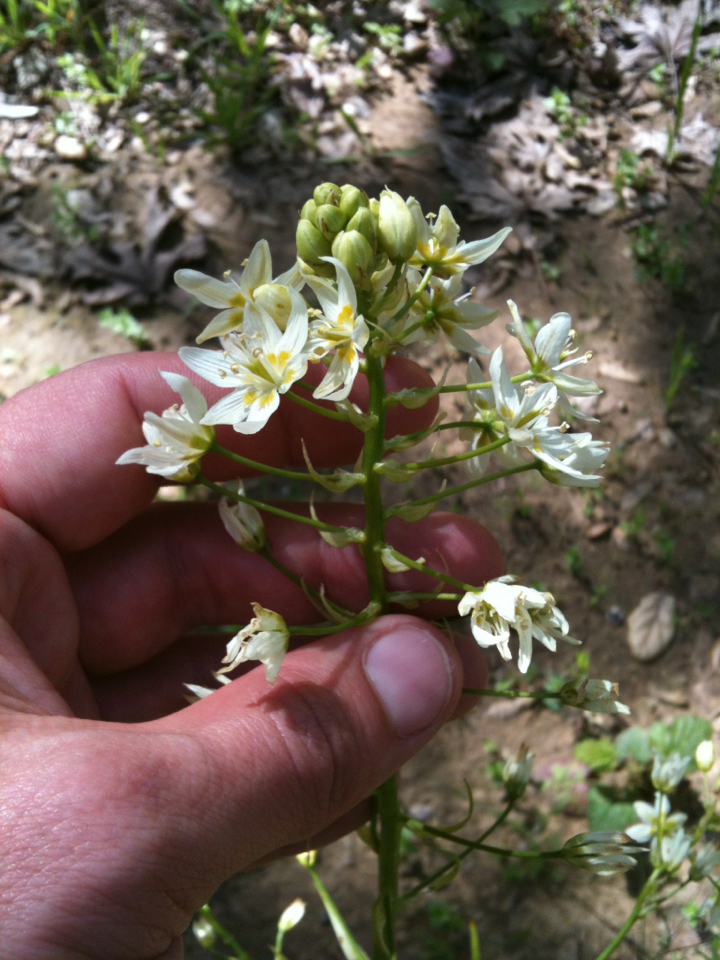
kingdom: Plantae
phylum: Tracheophyta
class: Liliopsida
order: Liliales
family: Melanthiaceae
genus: Toxicoscordion
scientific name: Toxicoscordion fremontii
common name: Fremont's death camas
